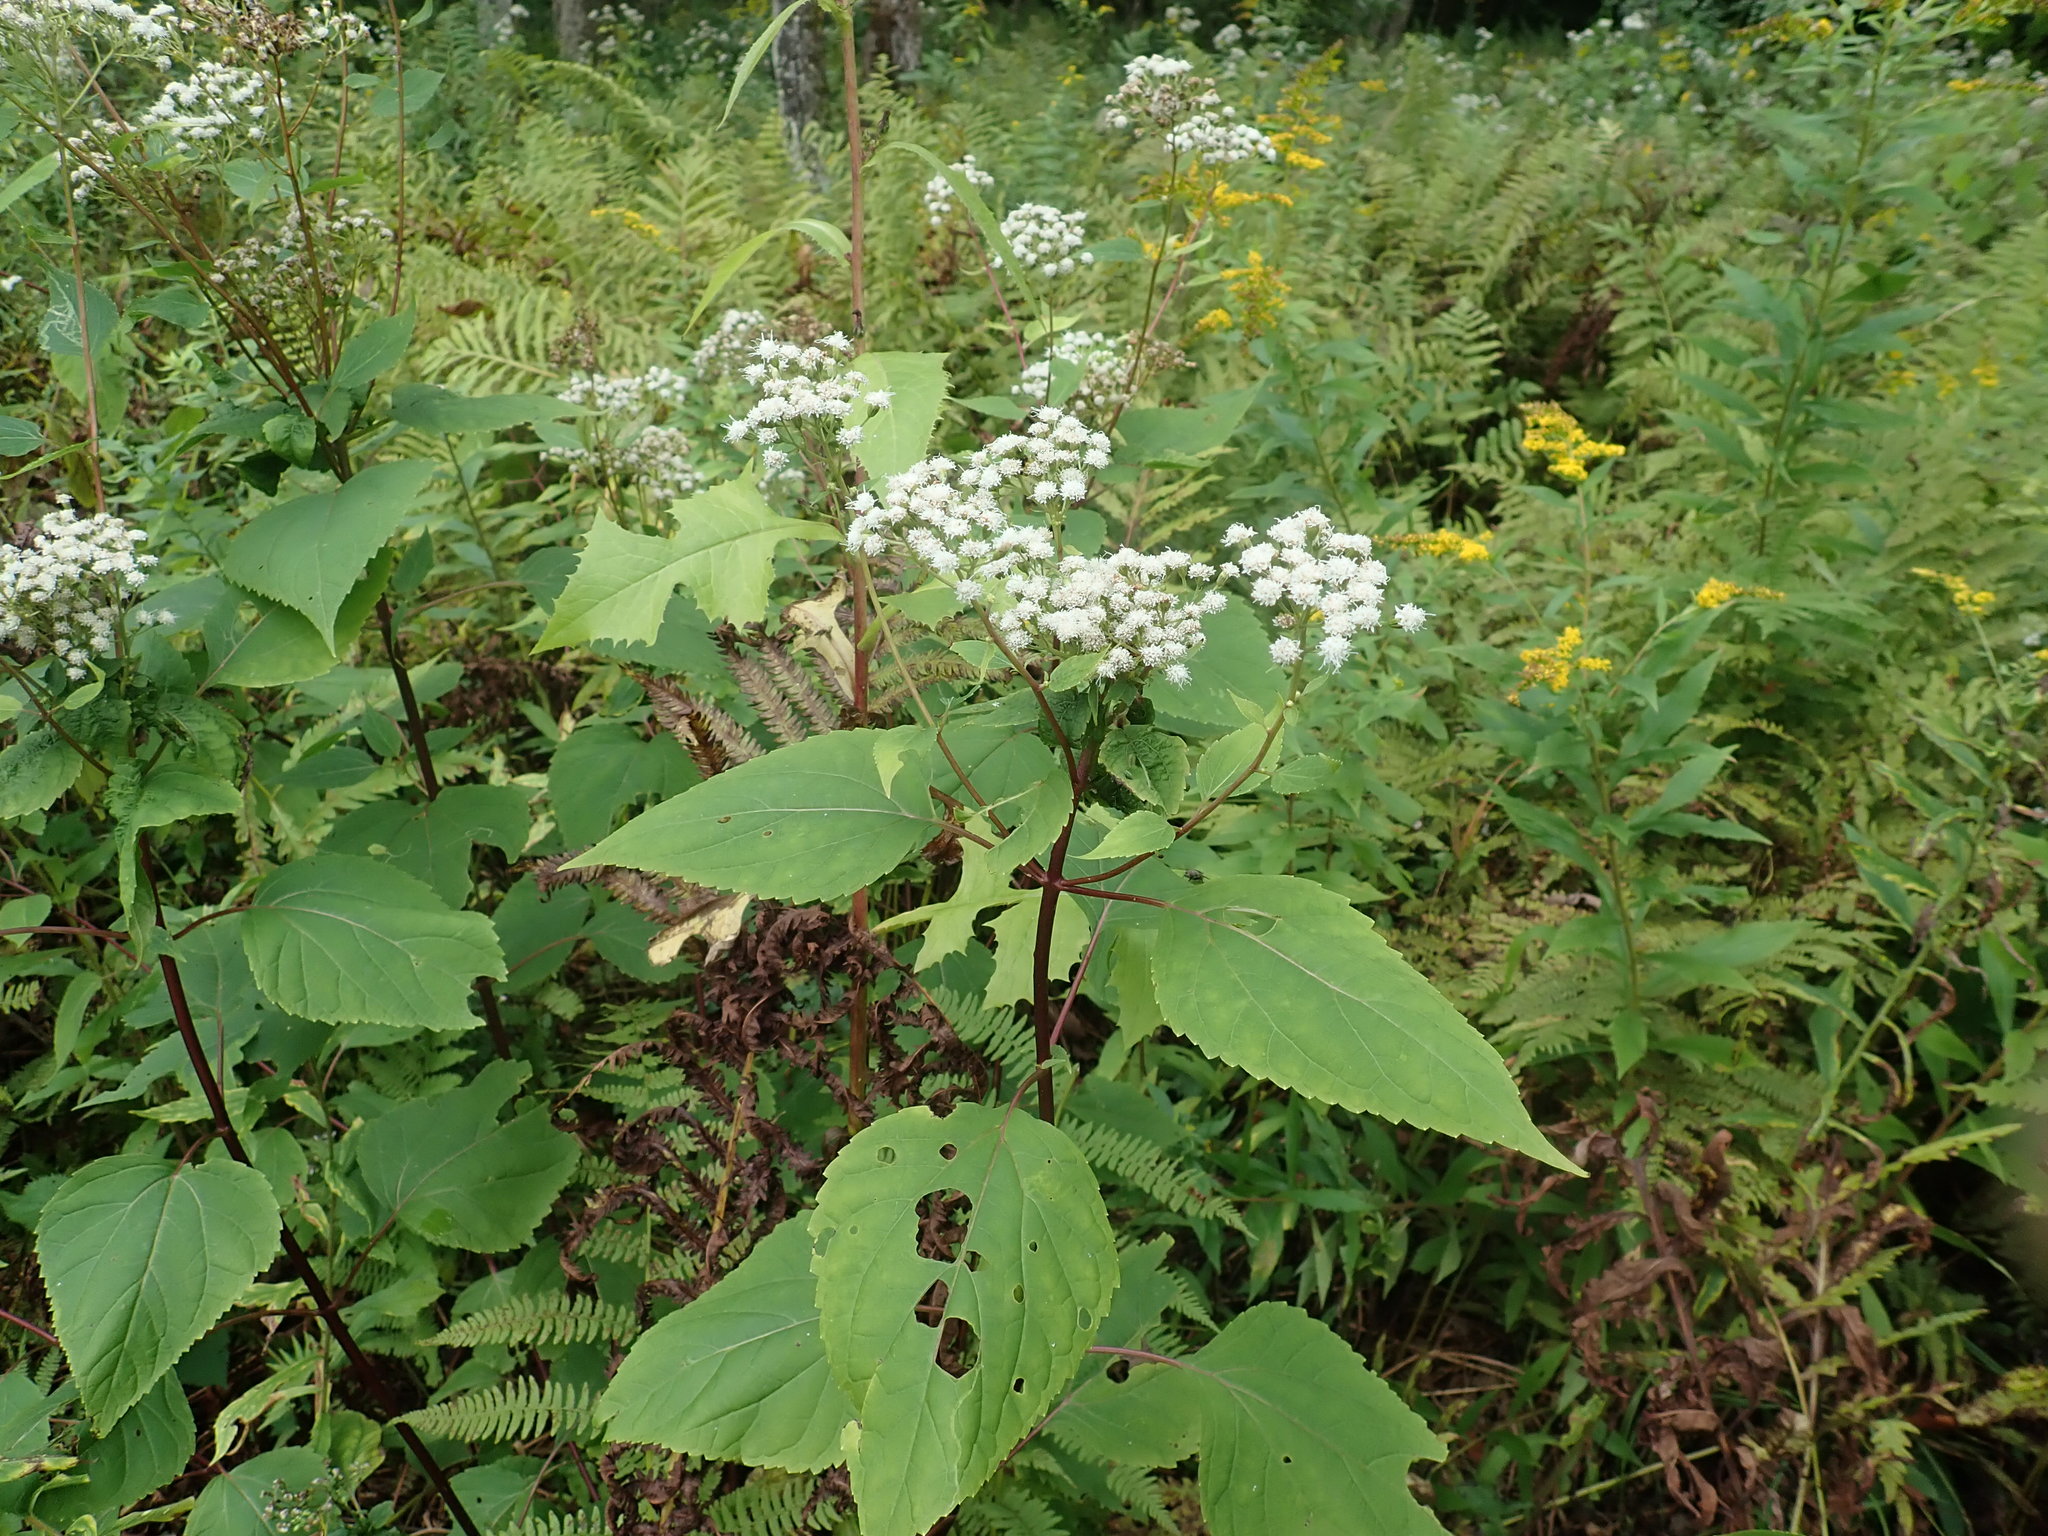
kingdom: Plantae
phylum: Tracheophyta
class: Magnoliopsida
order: Asterales
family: Asteraceae
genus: Ageratina
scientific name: Ageratina altissima
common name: White snakeroot
